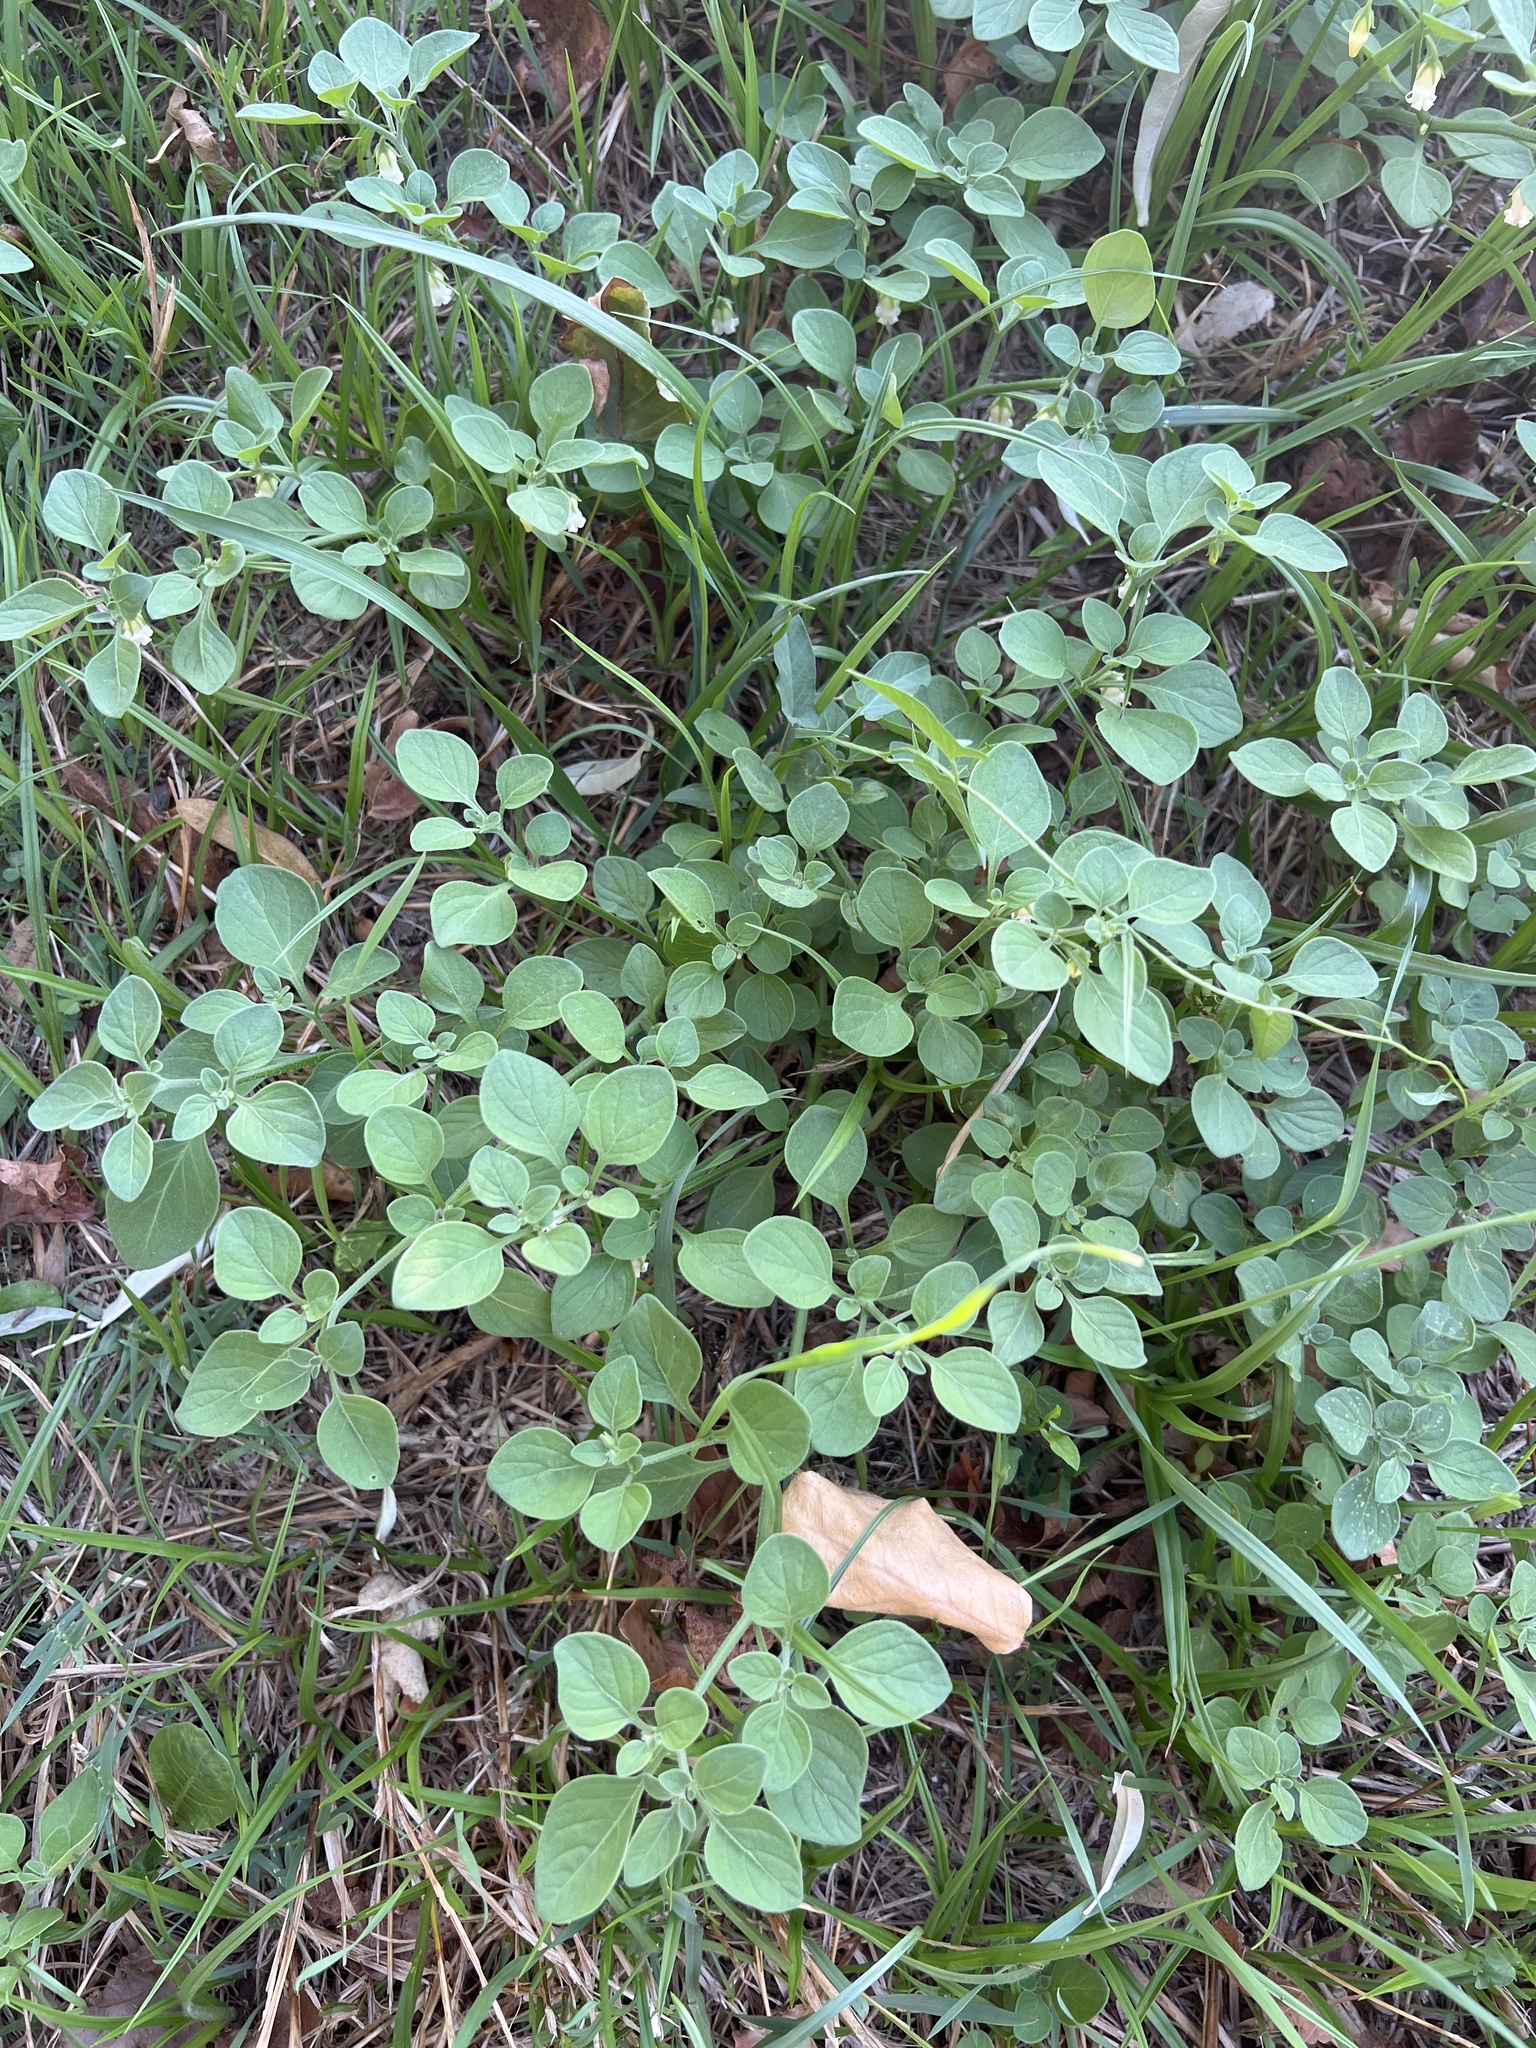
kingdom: Plantae
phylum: Tracheophyta
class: Magnoliopsida
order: Solanales
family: Solanaceae
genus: Salpichroa
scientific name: Salpichroa origanifolia
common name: Lily-of-the-valley-vine
